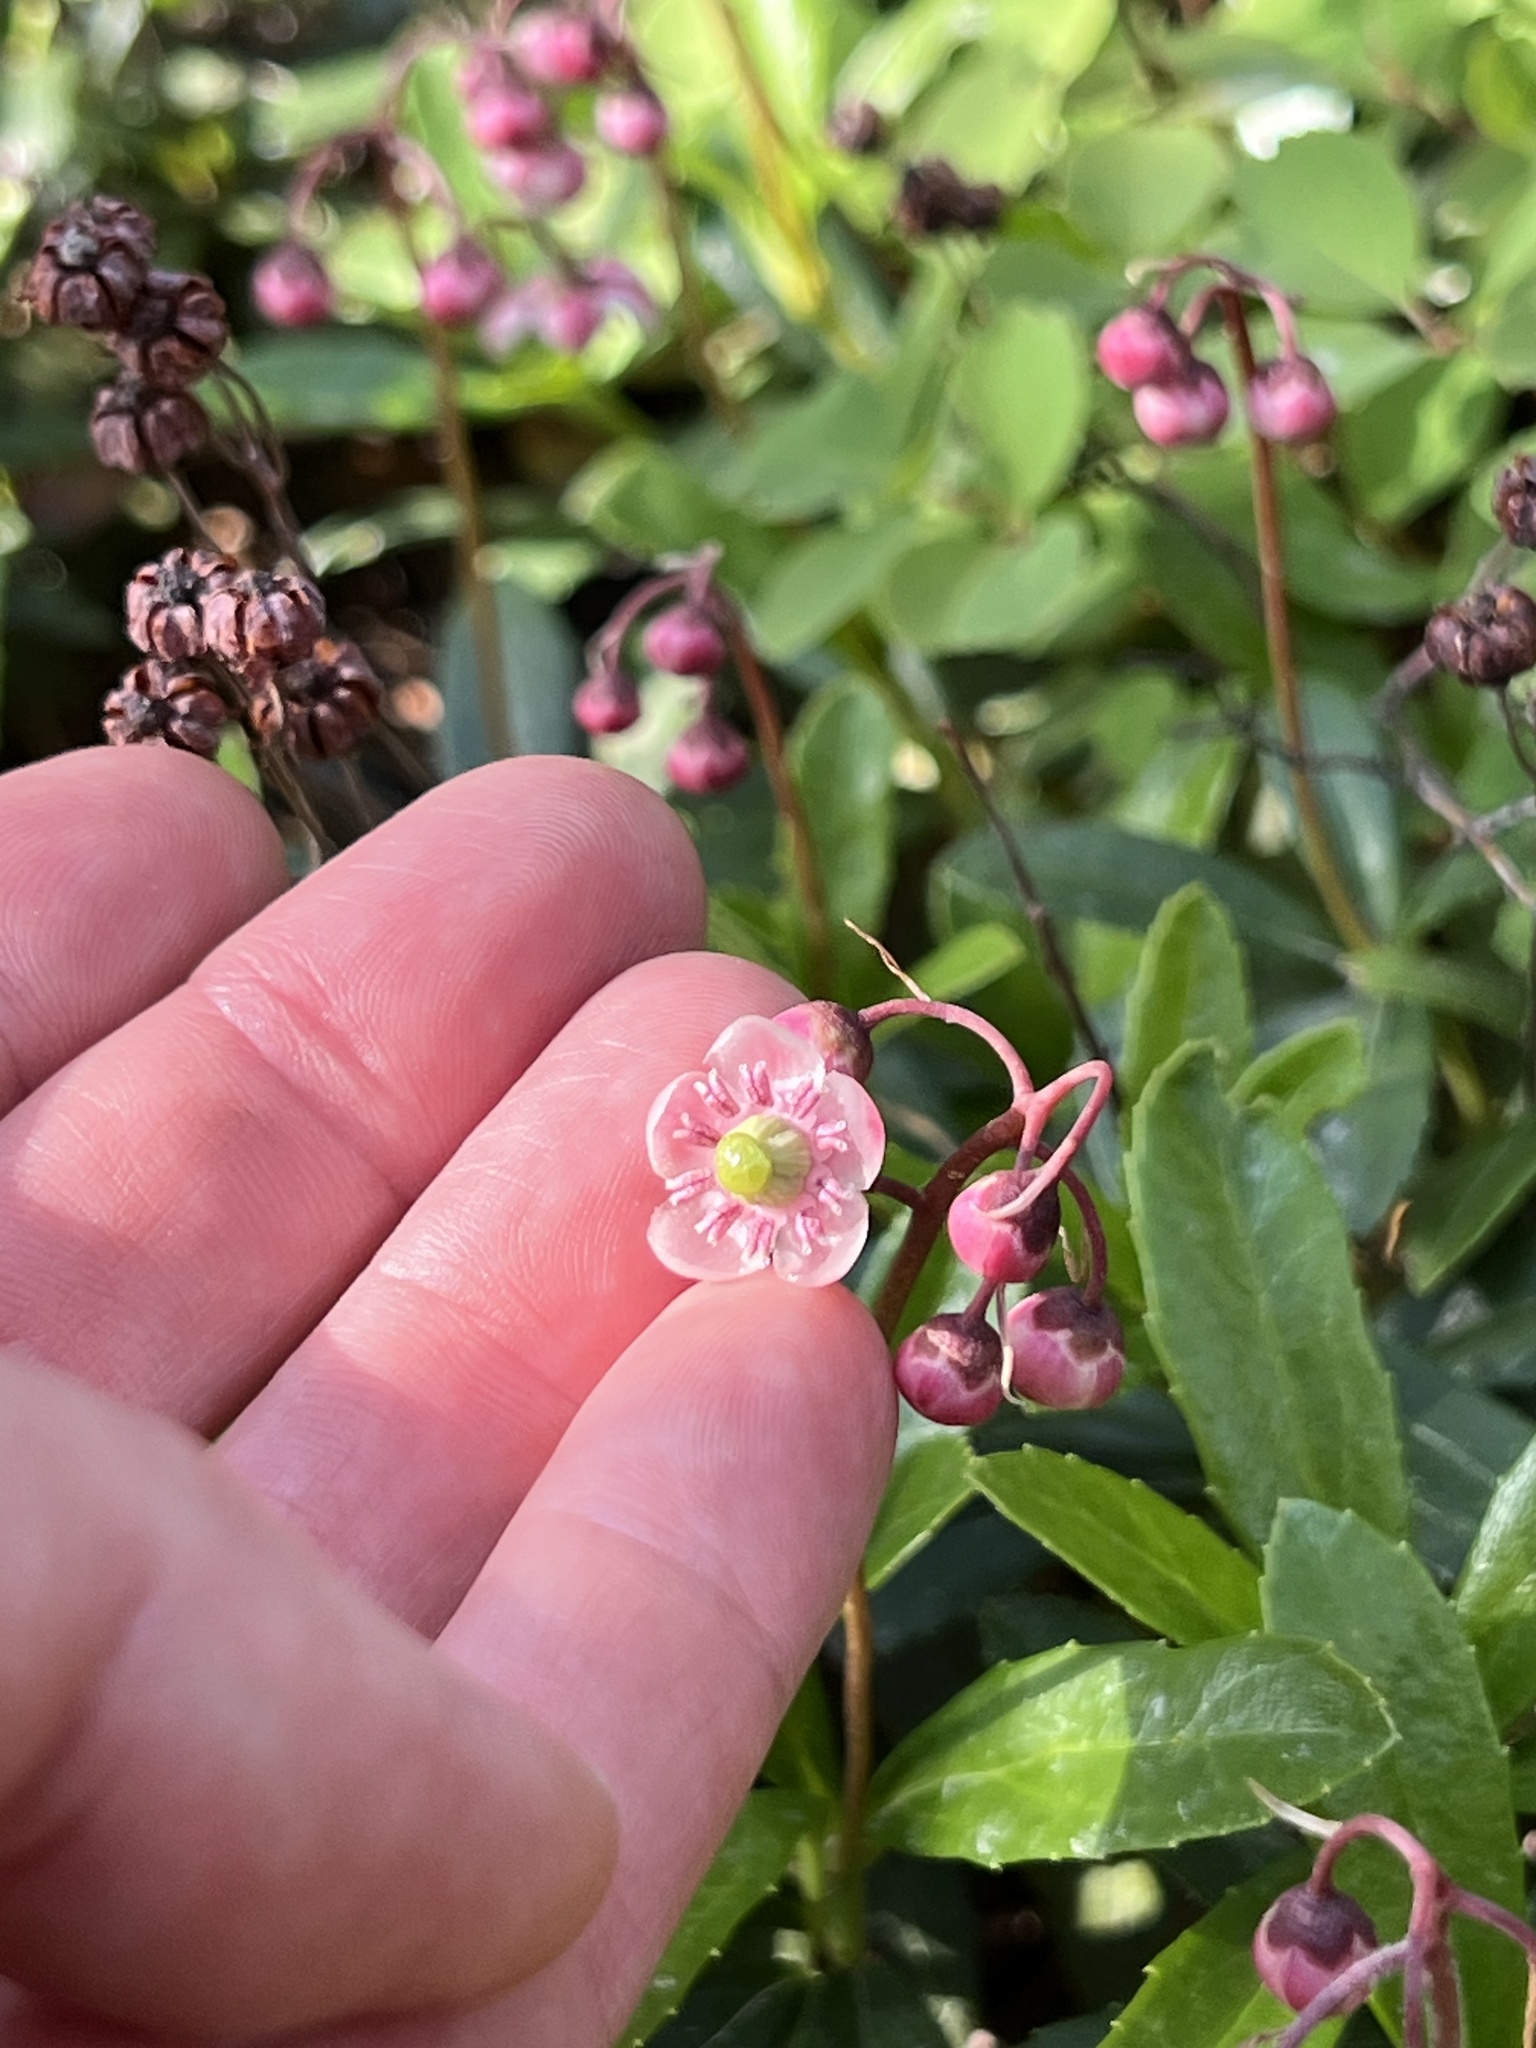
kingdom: Plantae
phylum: Tracheophyta
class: Magnoliopsida
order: Ericales
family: Ericaceae
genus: Chimaphila
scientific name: Chimaphila umbellata
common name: Pipsissewa
